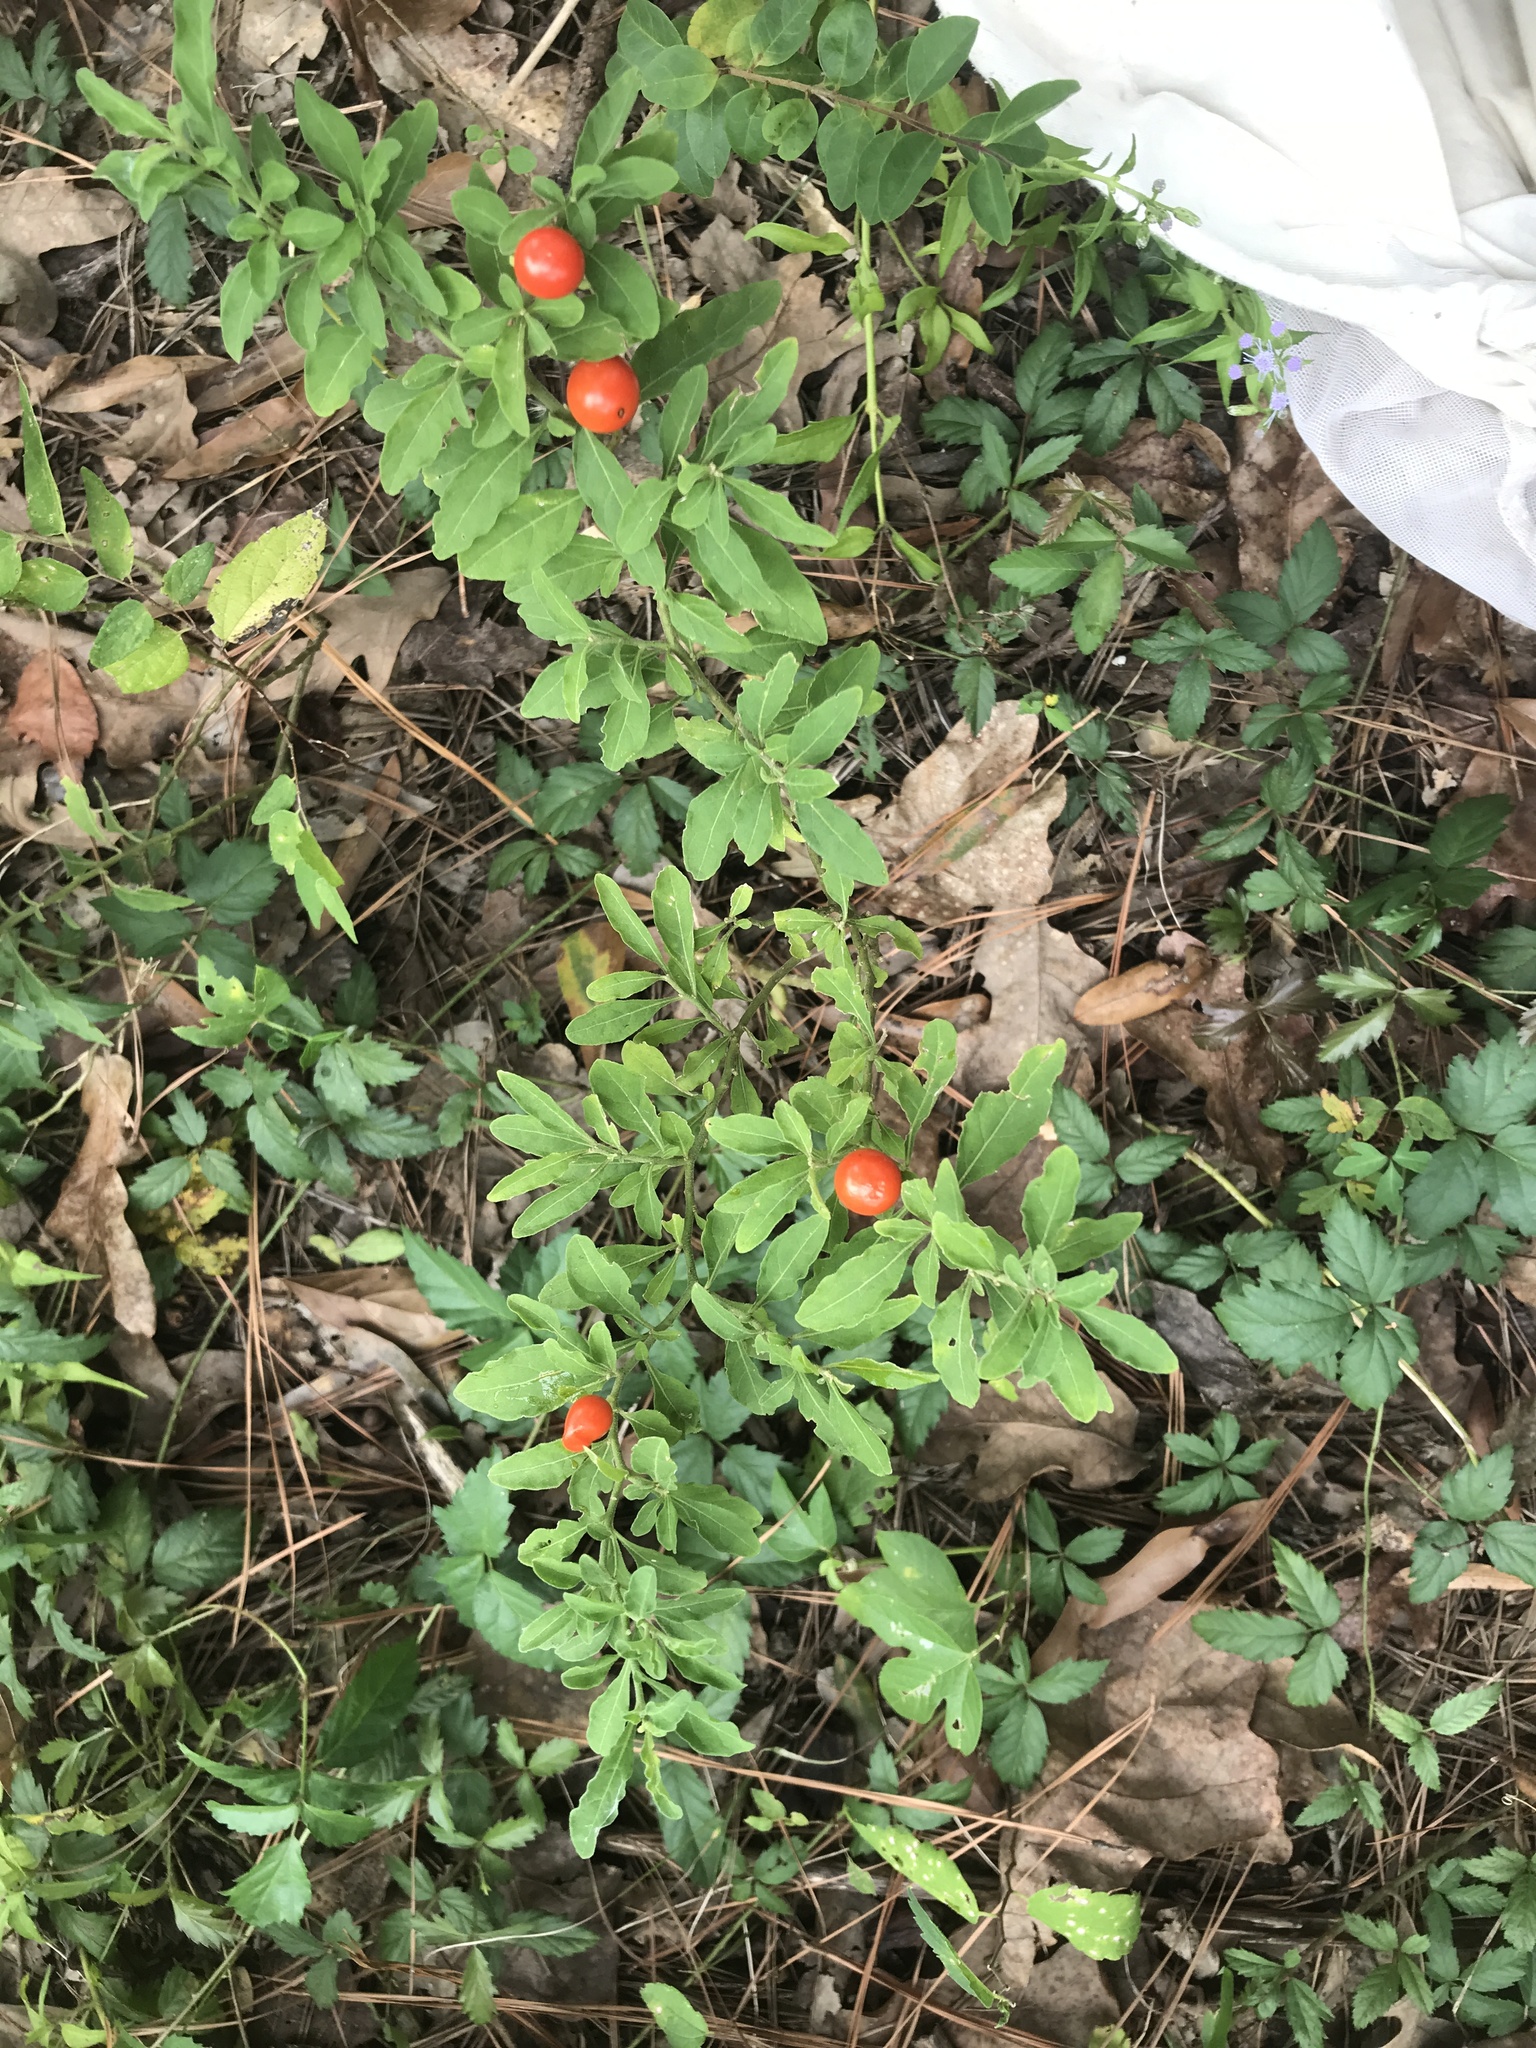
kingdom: Plantae
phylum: Tracheophyta
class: Magnoliopsida
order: Solanales
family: Solanaceae
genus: Solanum
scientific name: Solanum pseudocapsicum
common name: Jerusalem cherry
